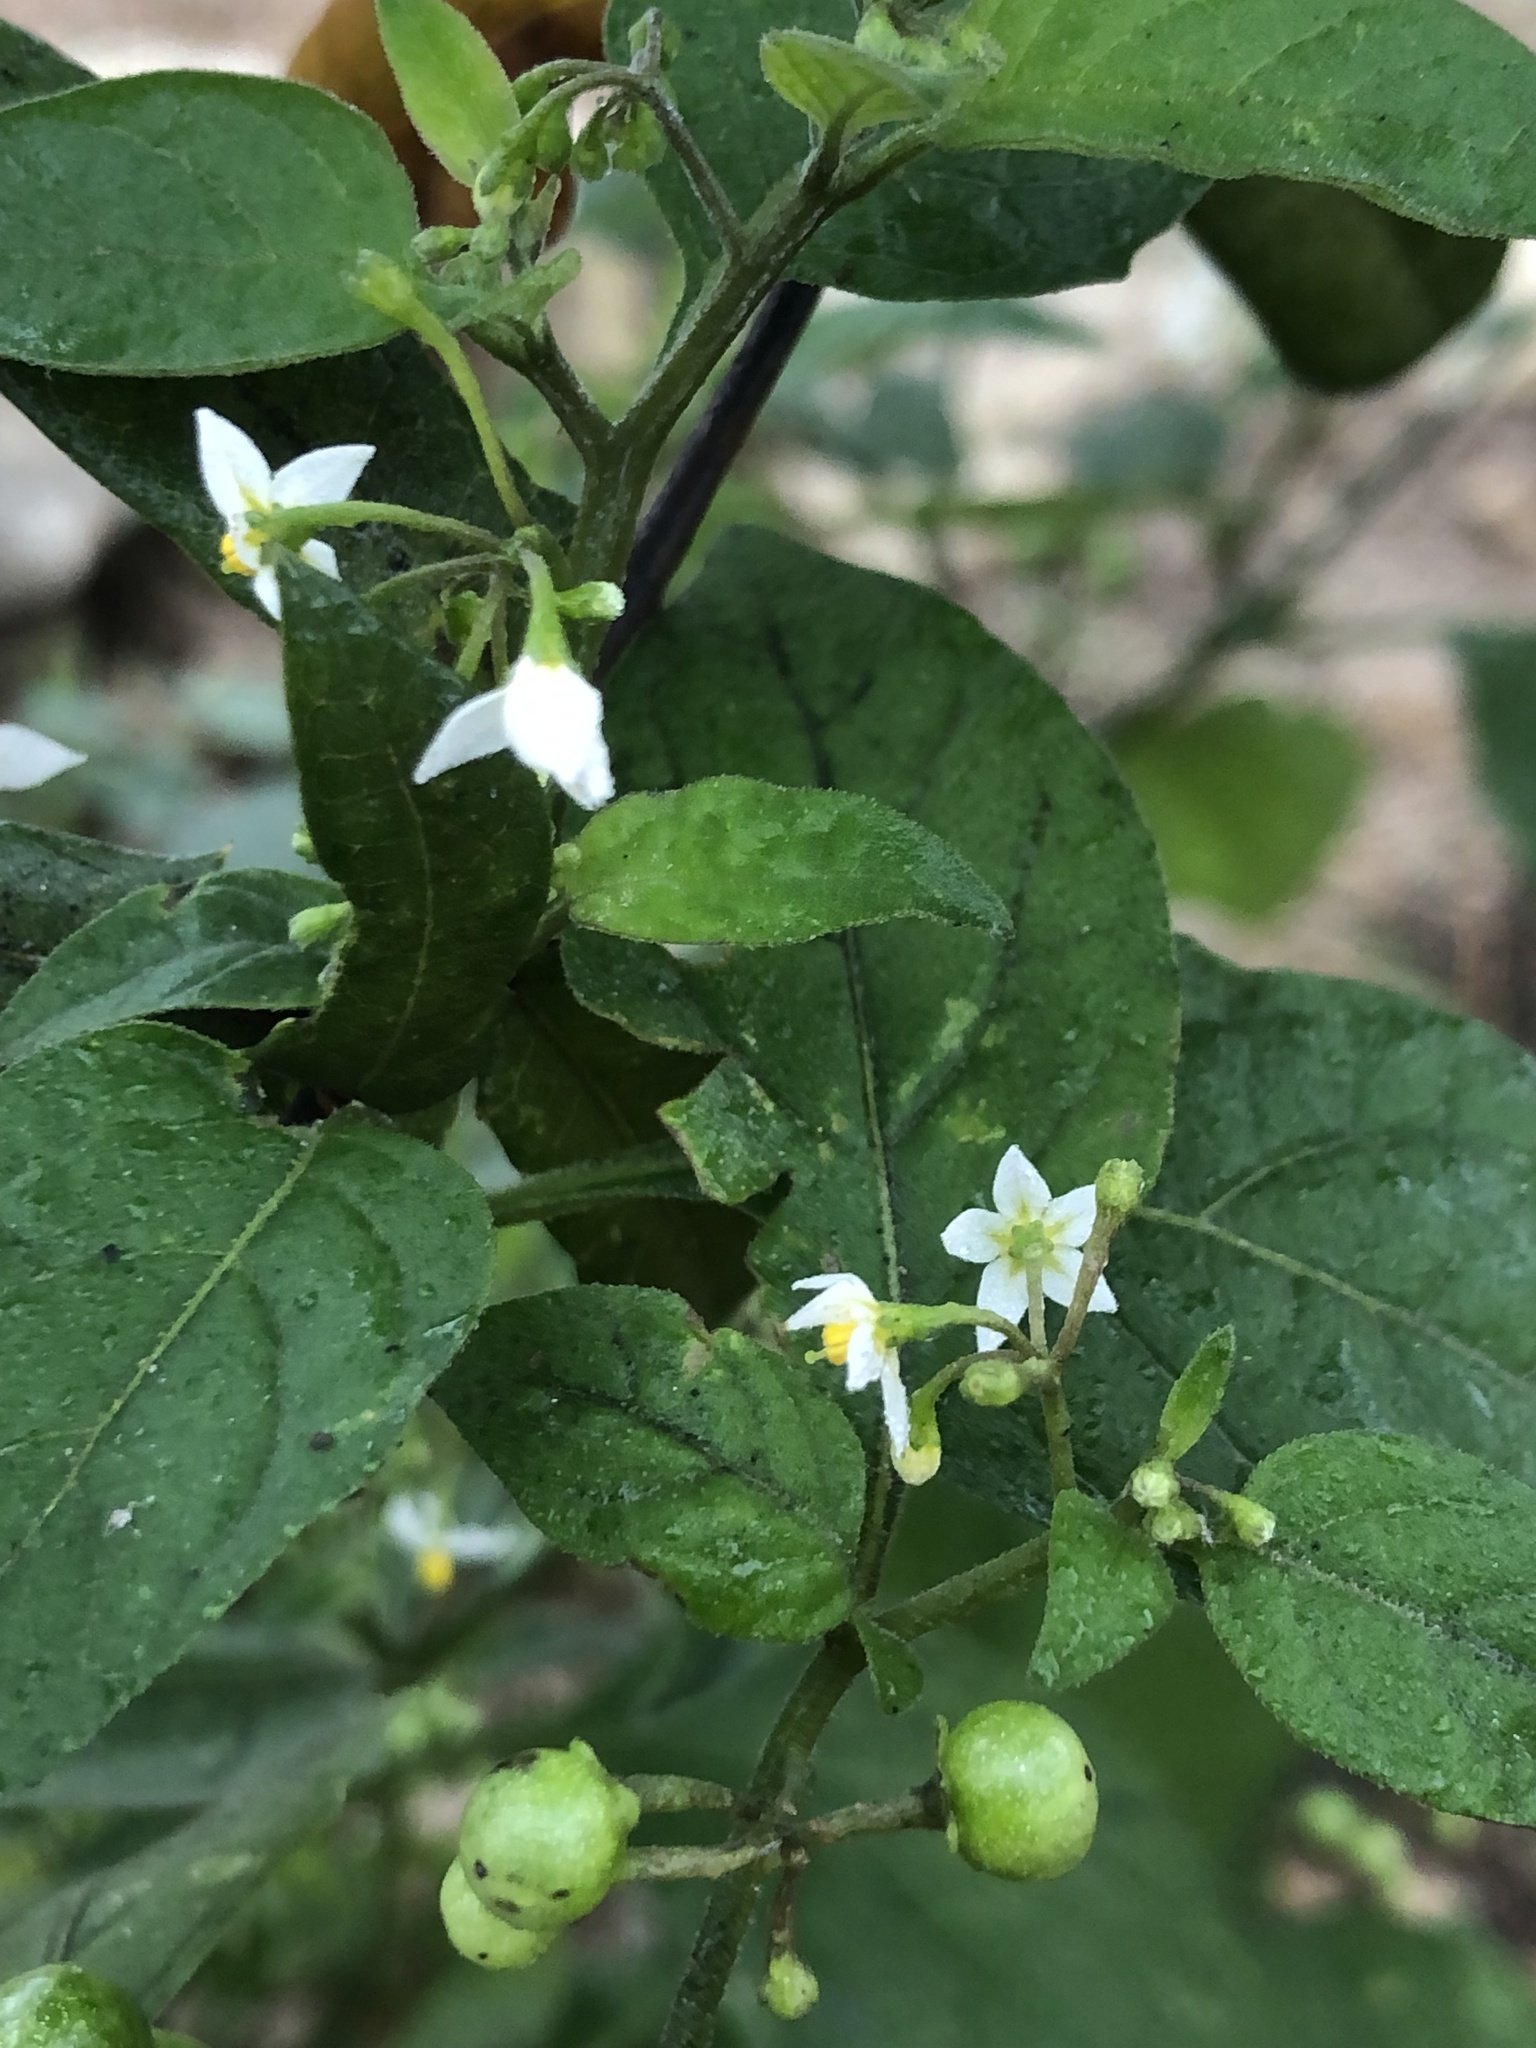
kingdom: Plantae
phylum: Tracheophyta
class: Magnoliopsida
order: Solanales
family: Solanaceae
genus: Solanum
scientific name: Solanum americanum
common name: American black nightshade
